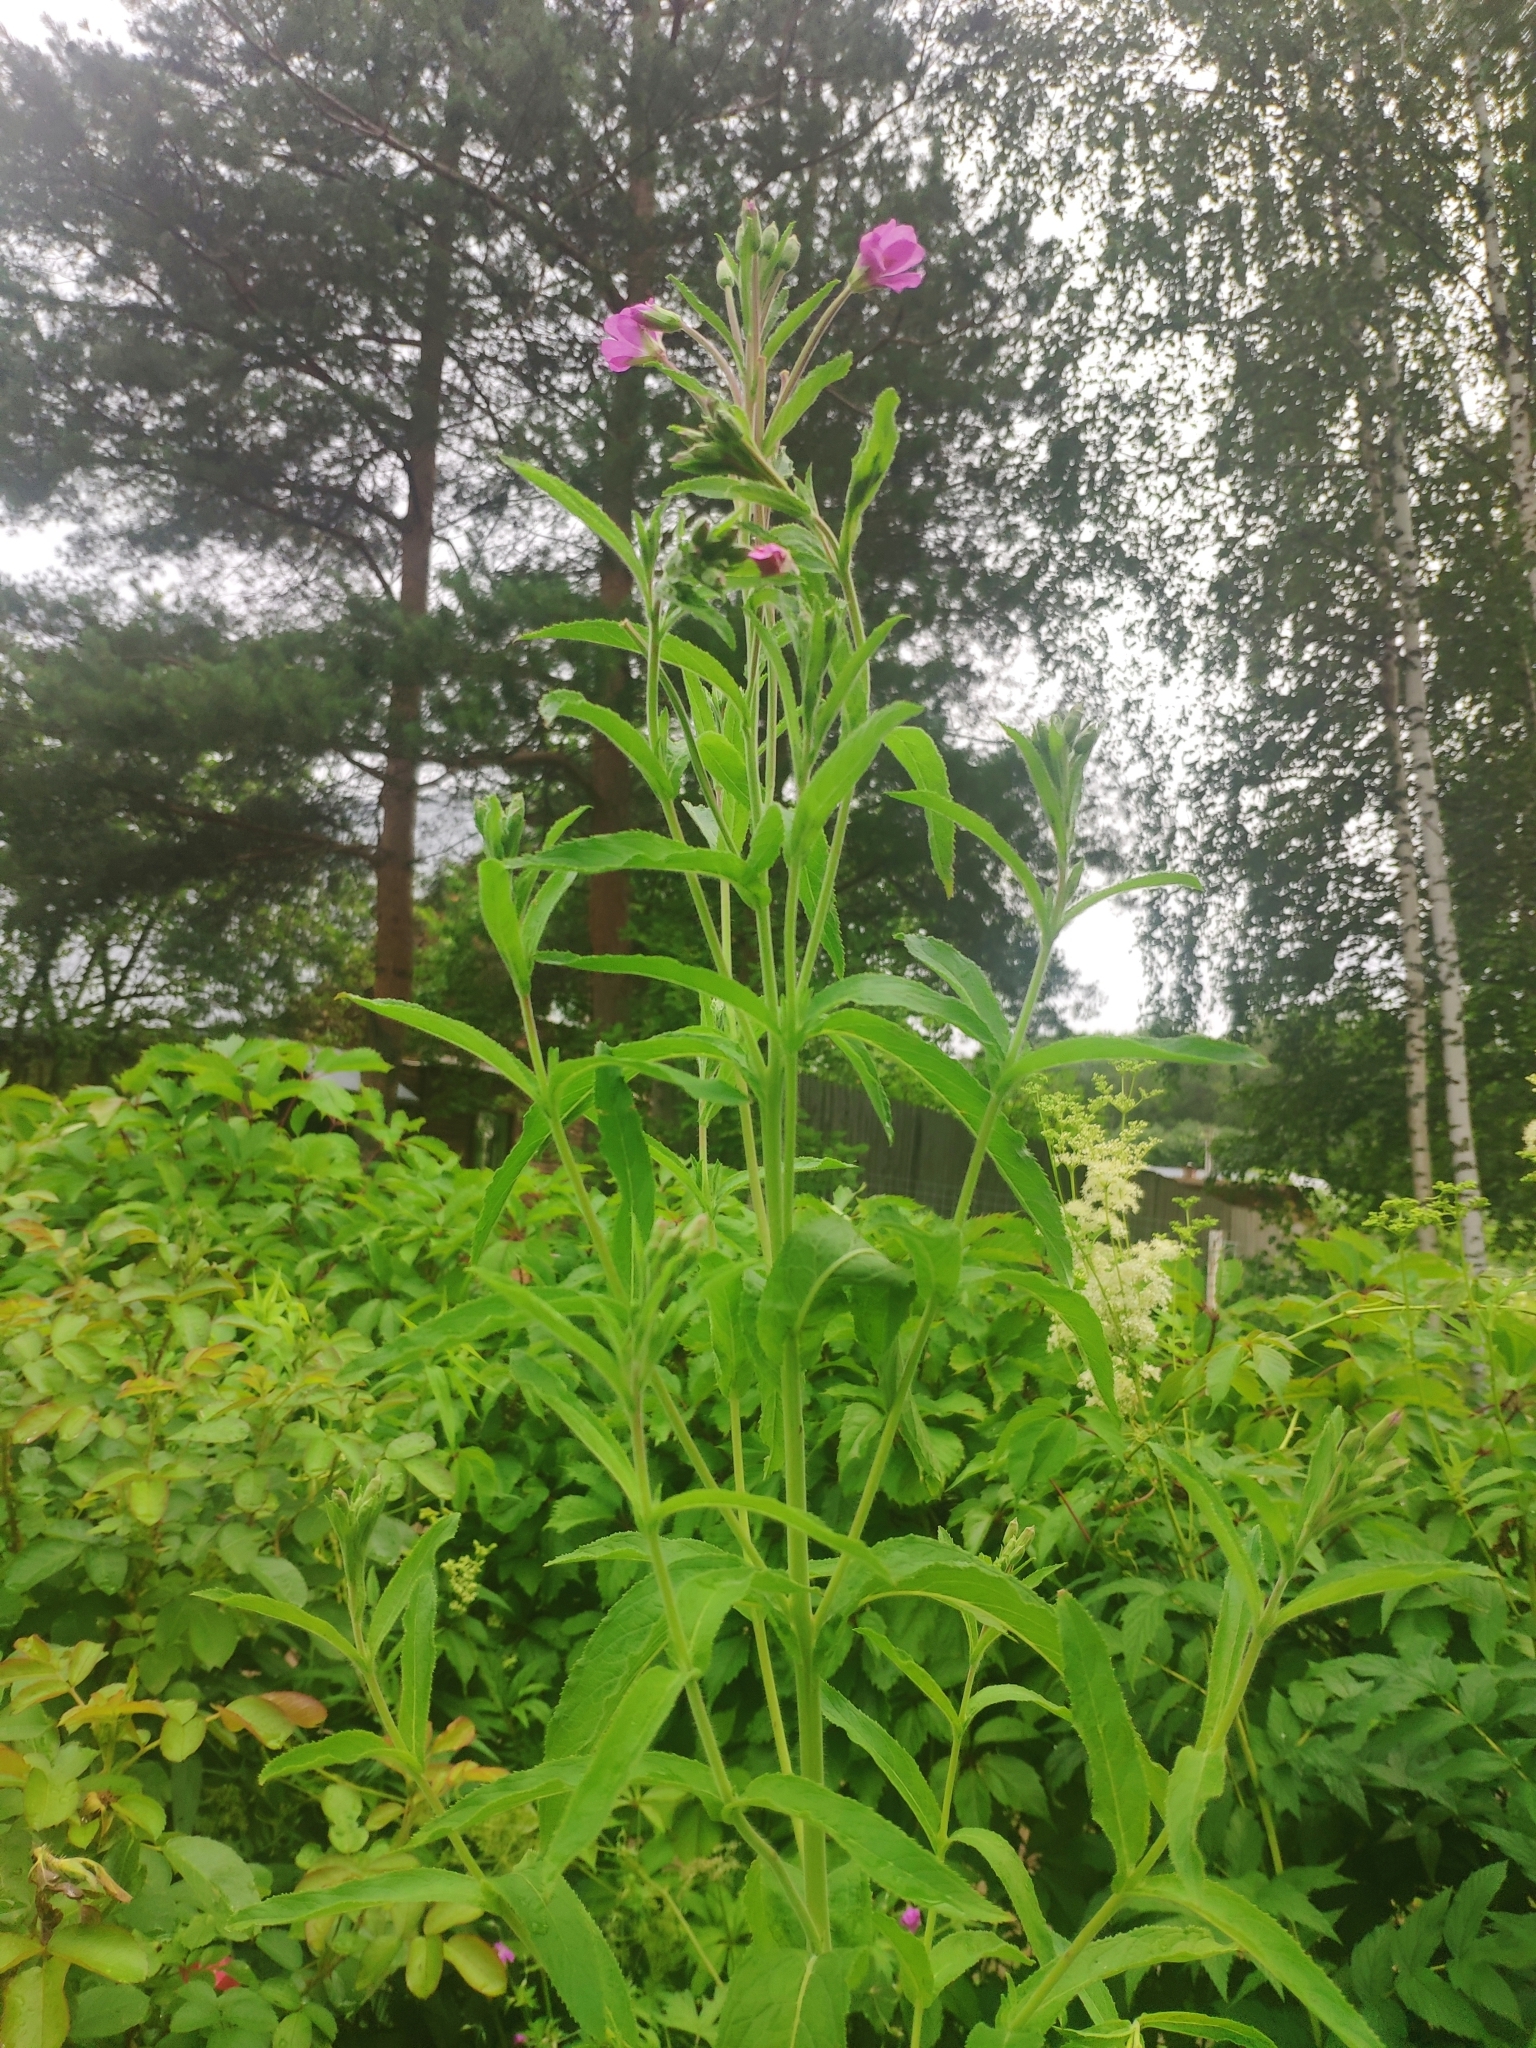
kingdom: Plantae
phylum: Tracheophyta
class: Magnoliopsida
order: Myrtales
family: Onagraceae
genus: Epilobium
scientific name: Epilobium hirsutum
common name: Great willowherb
